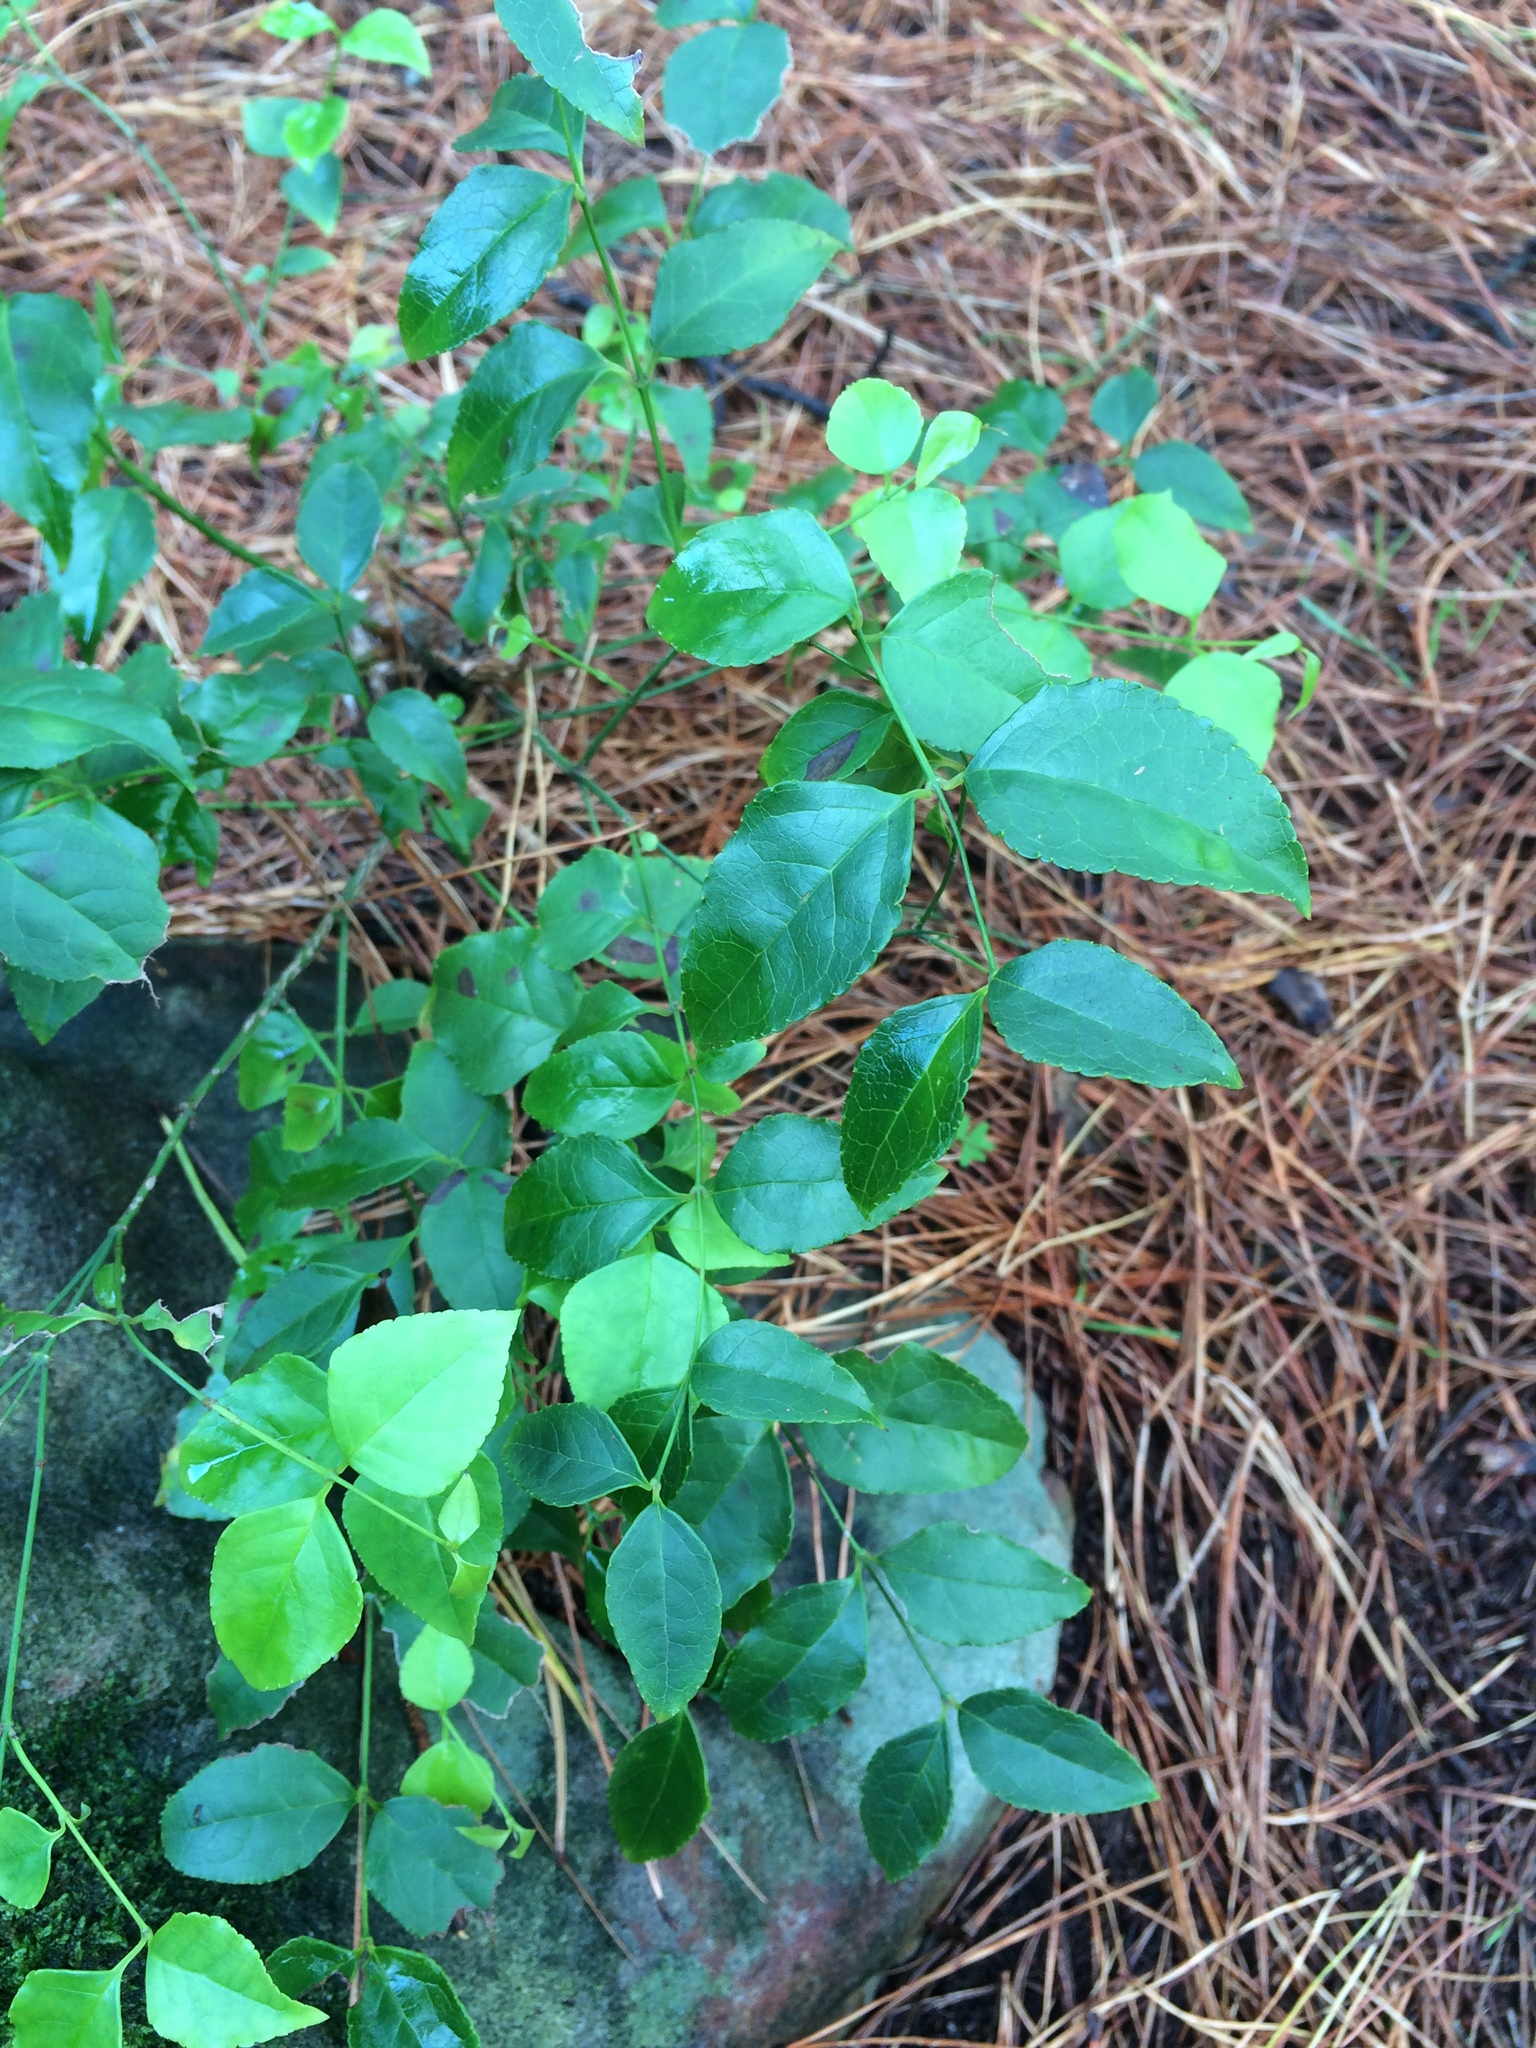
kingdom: Plantae
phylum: Tracheophyta
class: Magnoliopsida
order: Lamiales
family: Stilbaceae
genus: Halleria
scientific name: Halleria lucida
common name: Tree fuschia
